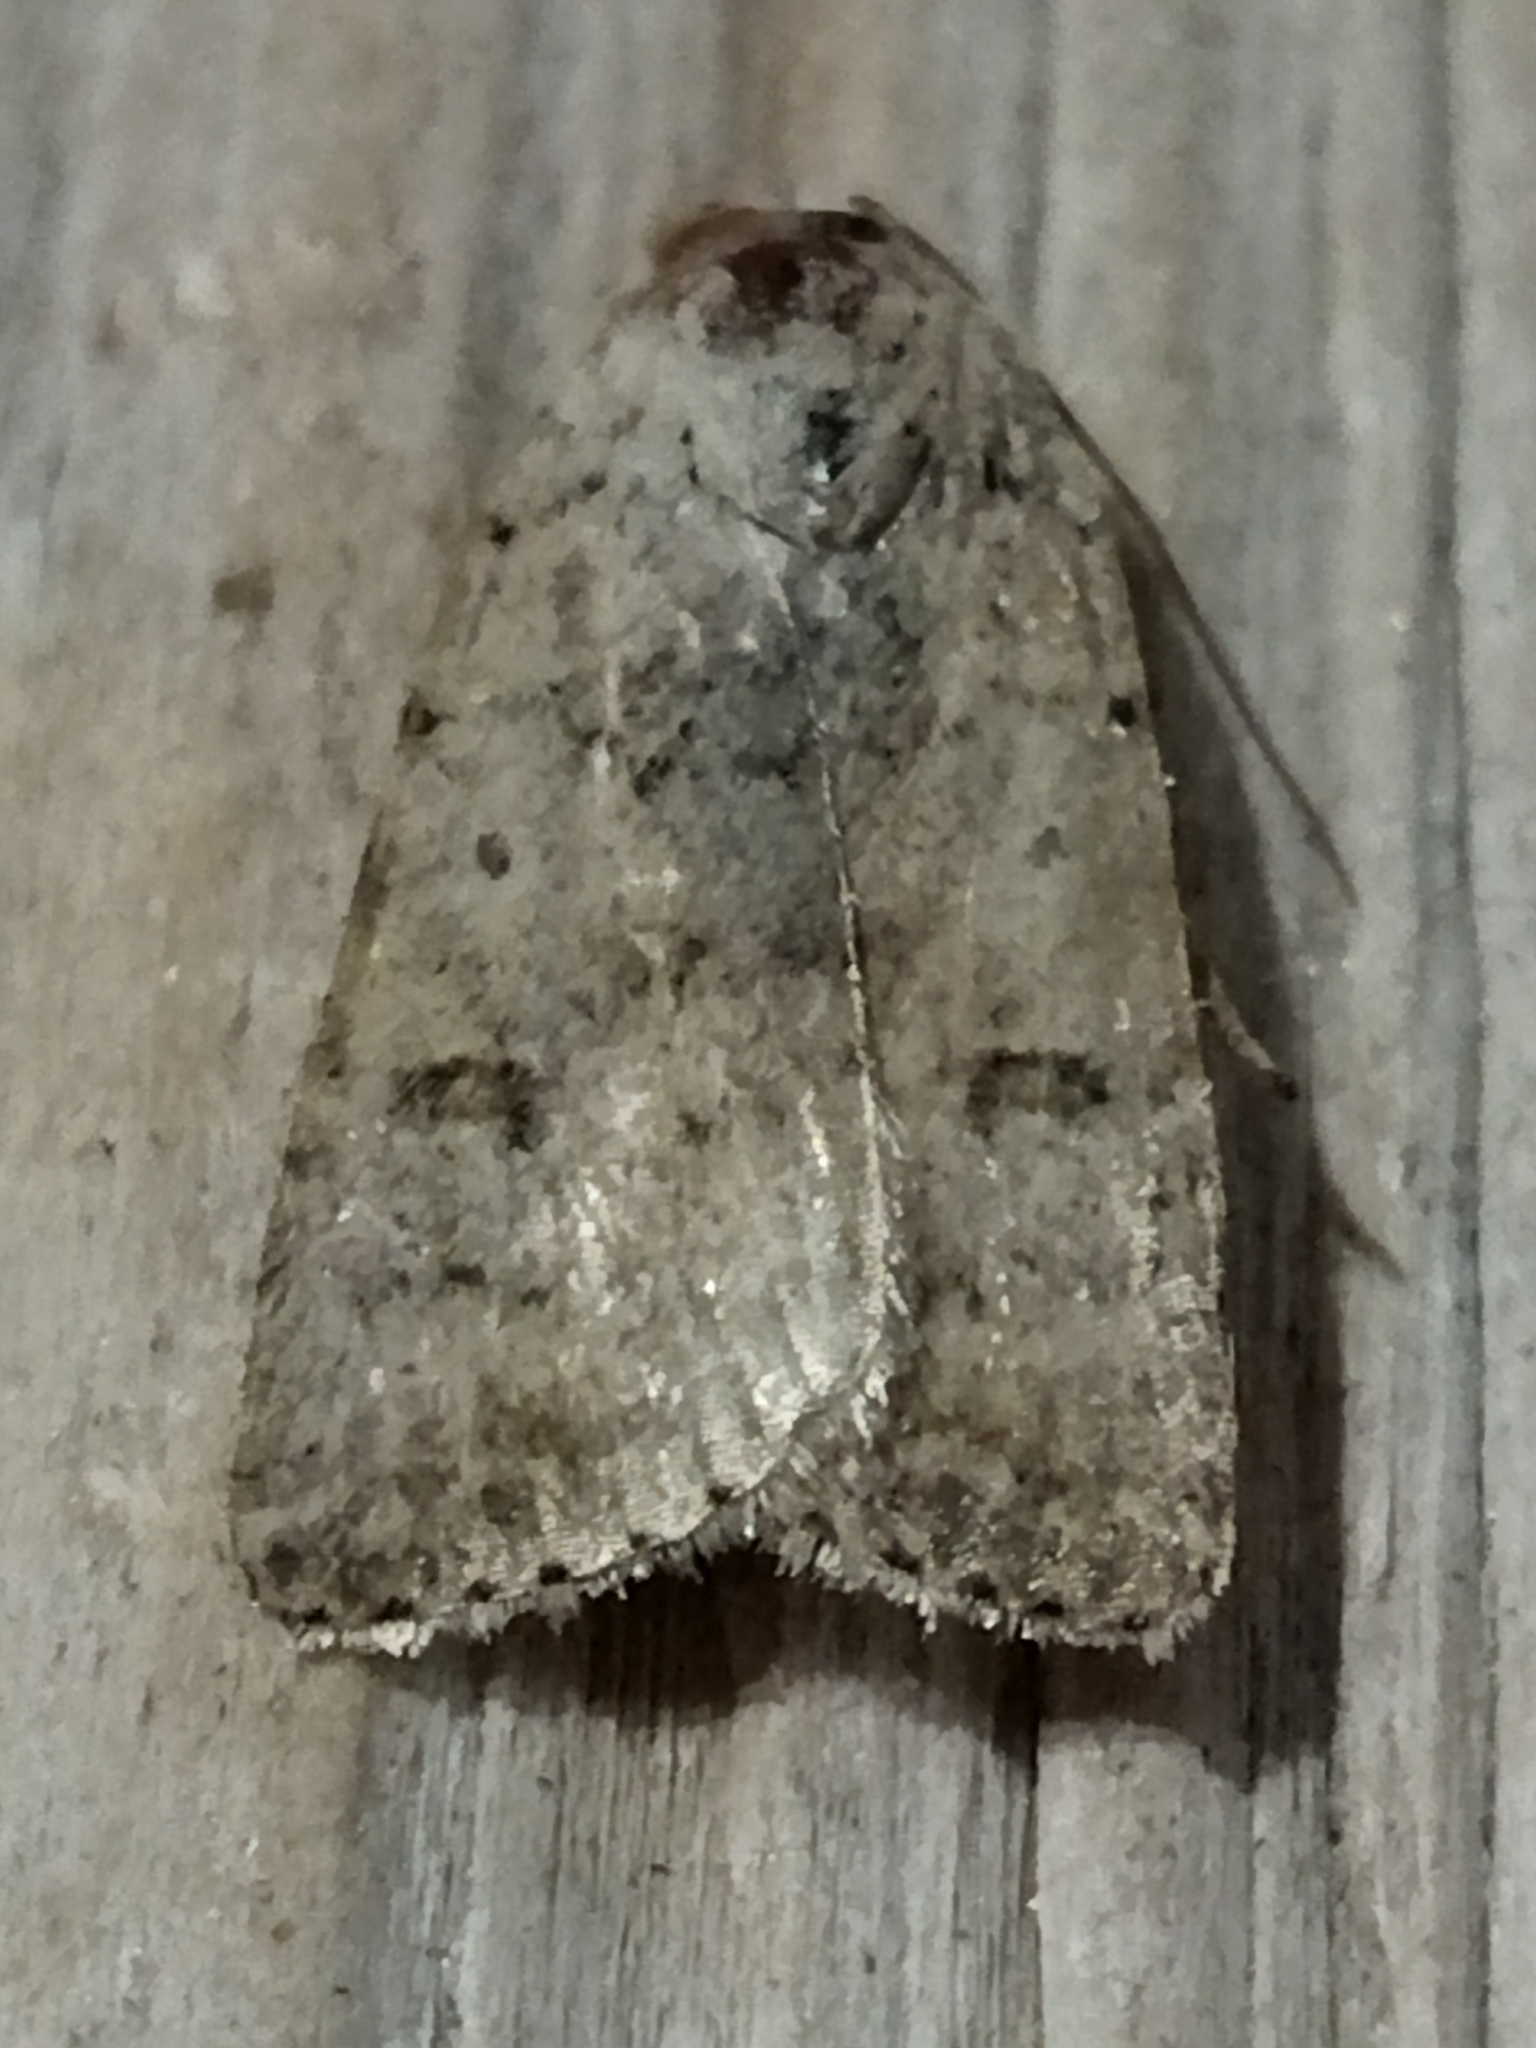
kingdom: Animalia
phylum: Arthropoda
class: Insecta
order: Lepidoptera
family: Noctuidae
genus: Caradrina
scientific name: Caradrina clavipalpis
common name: Pale mottled willow
